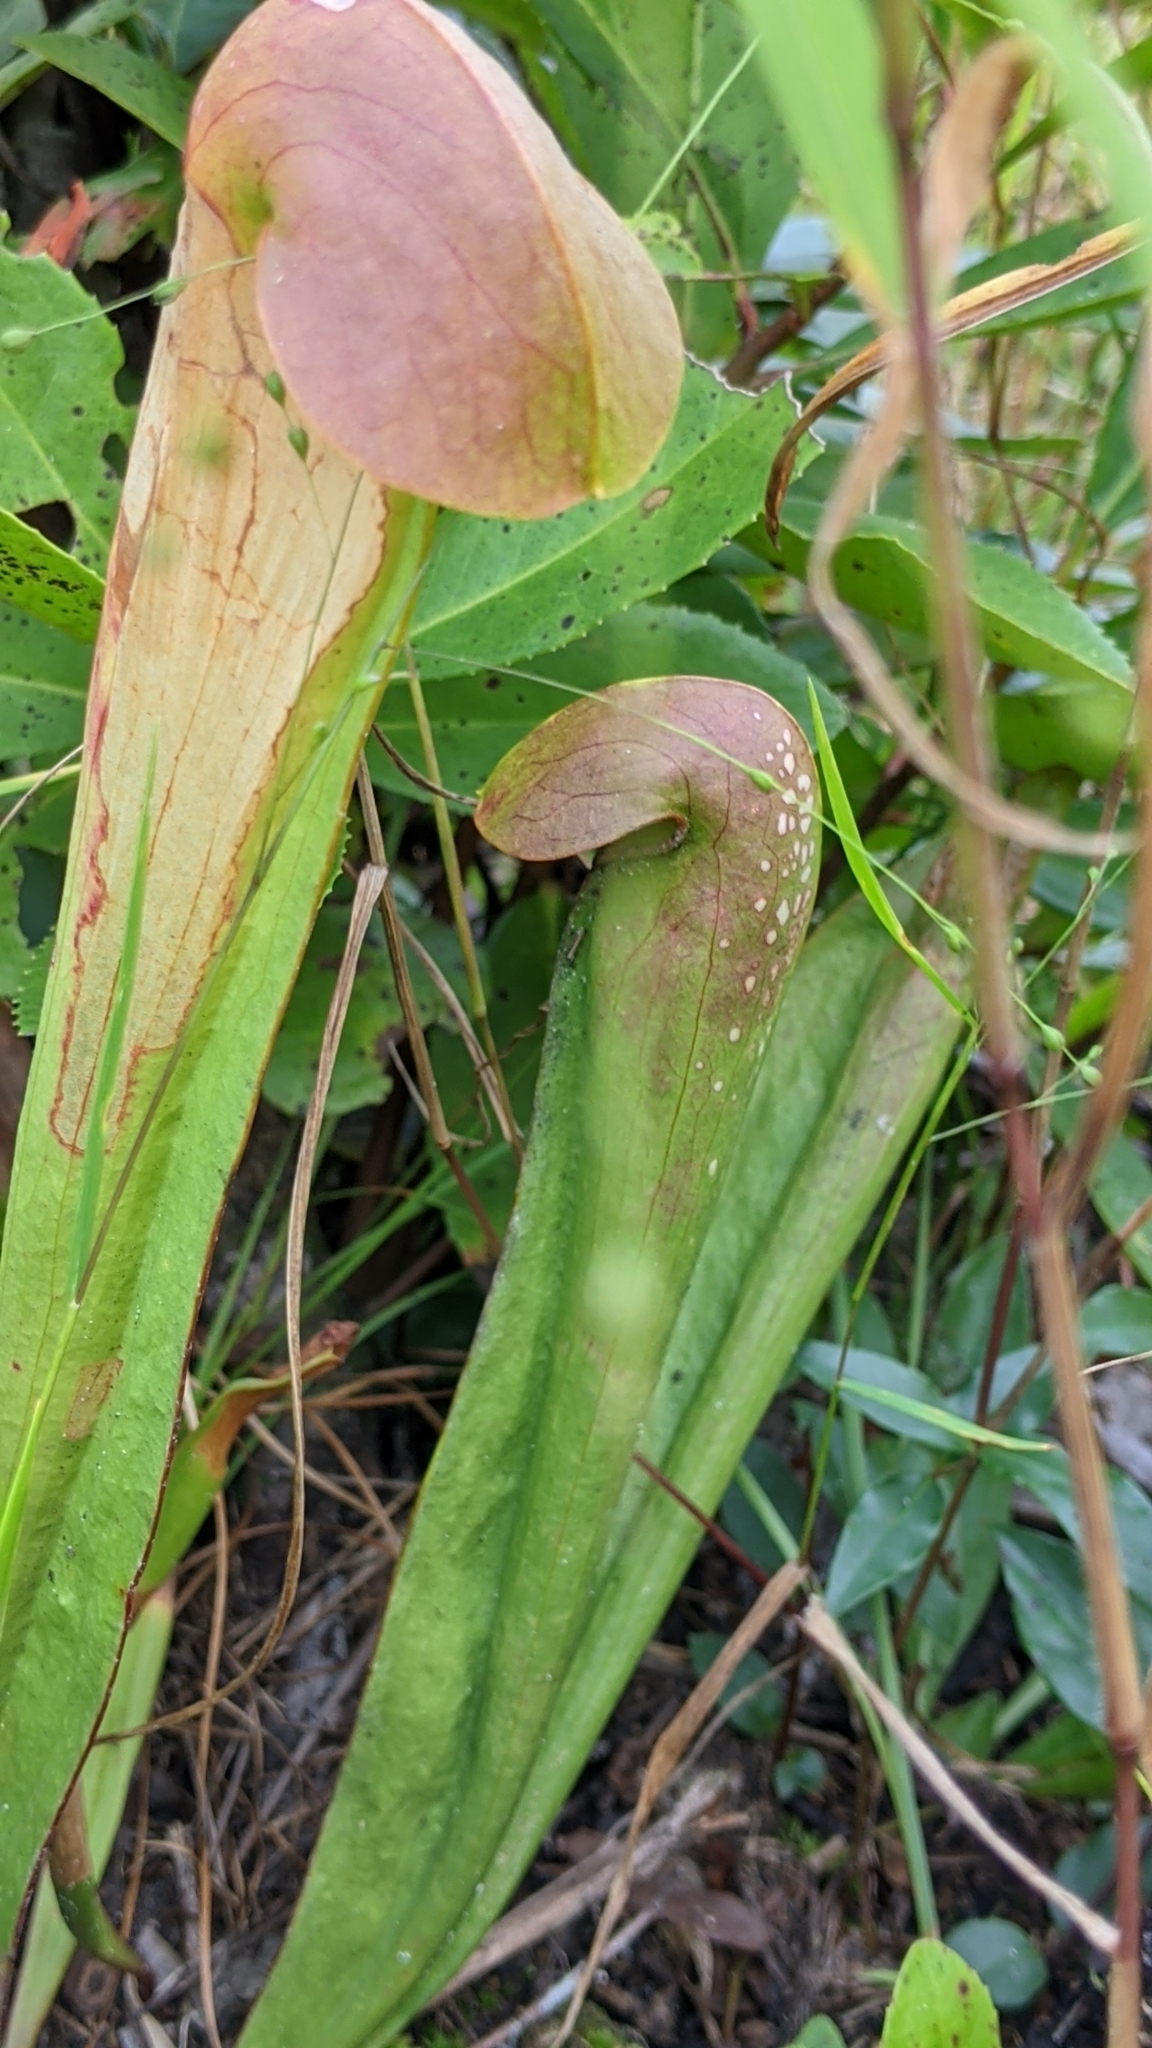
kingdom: Plantae
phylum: Tracheophyta
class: Magnoliopsida
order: Ericales
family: Sarraceniaceae
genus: Sarracenia
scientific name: Sarracenia minor
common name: Rainhat-trumpet
